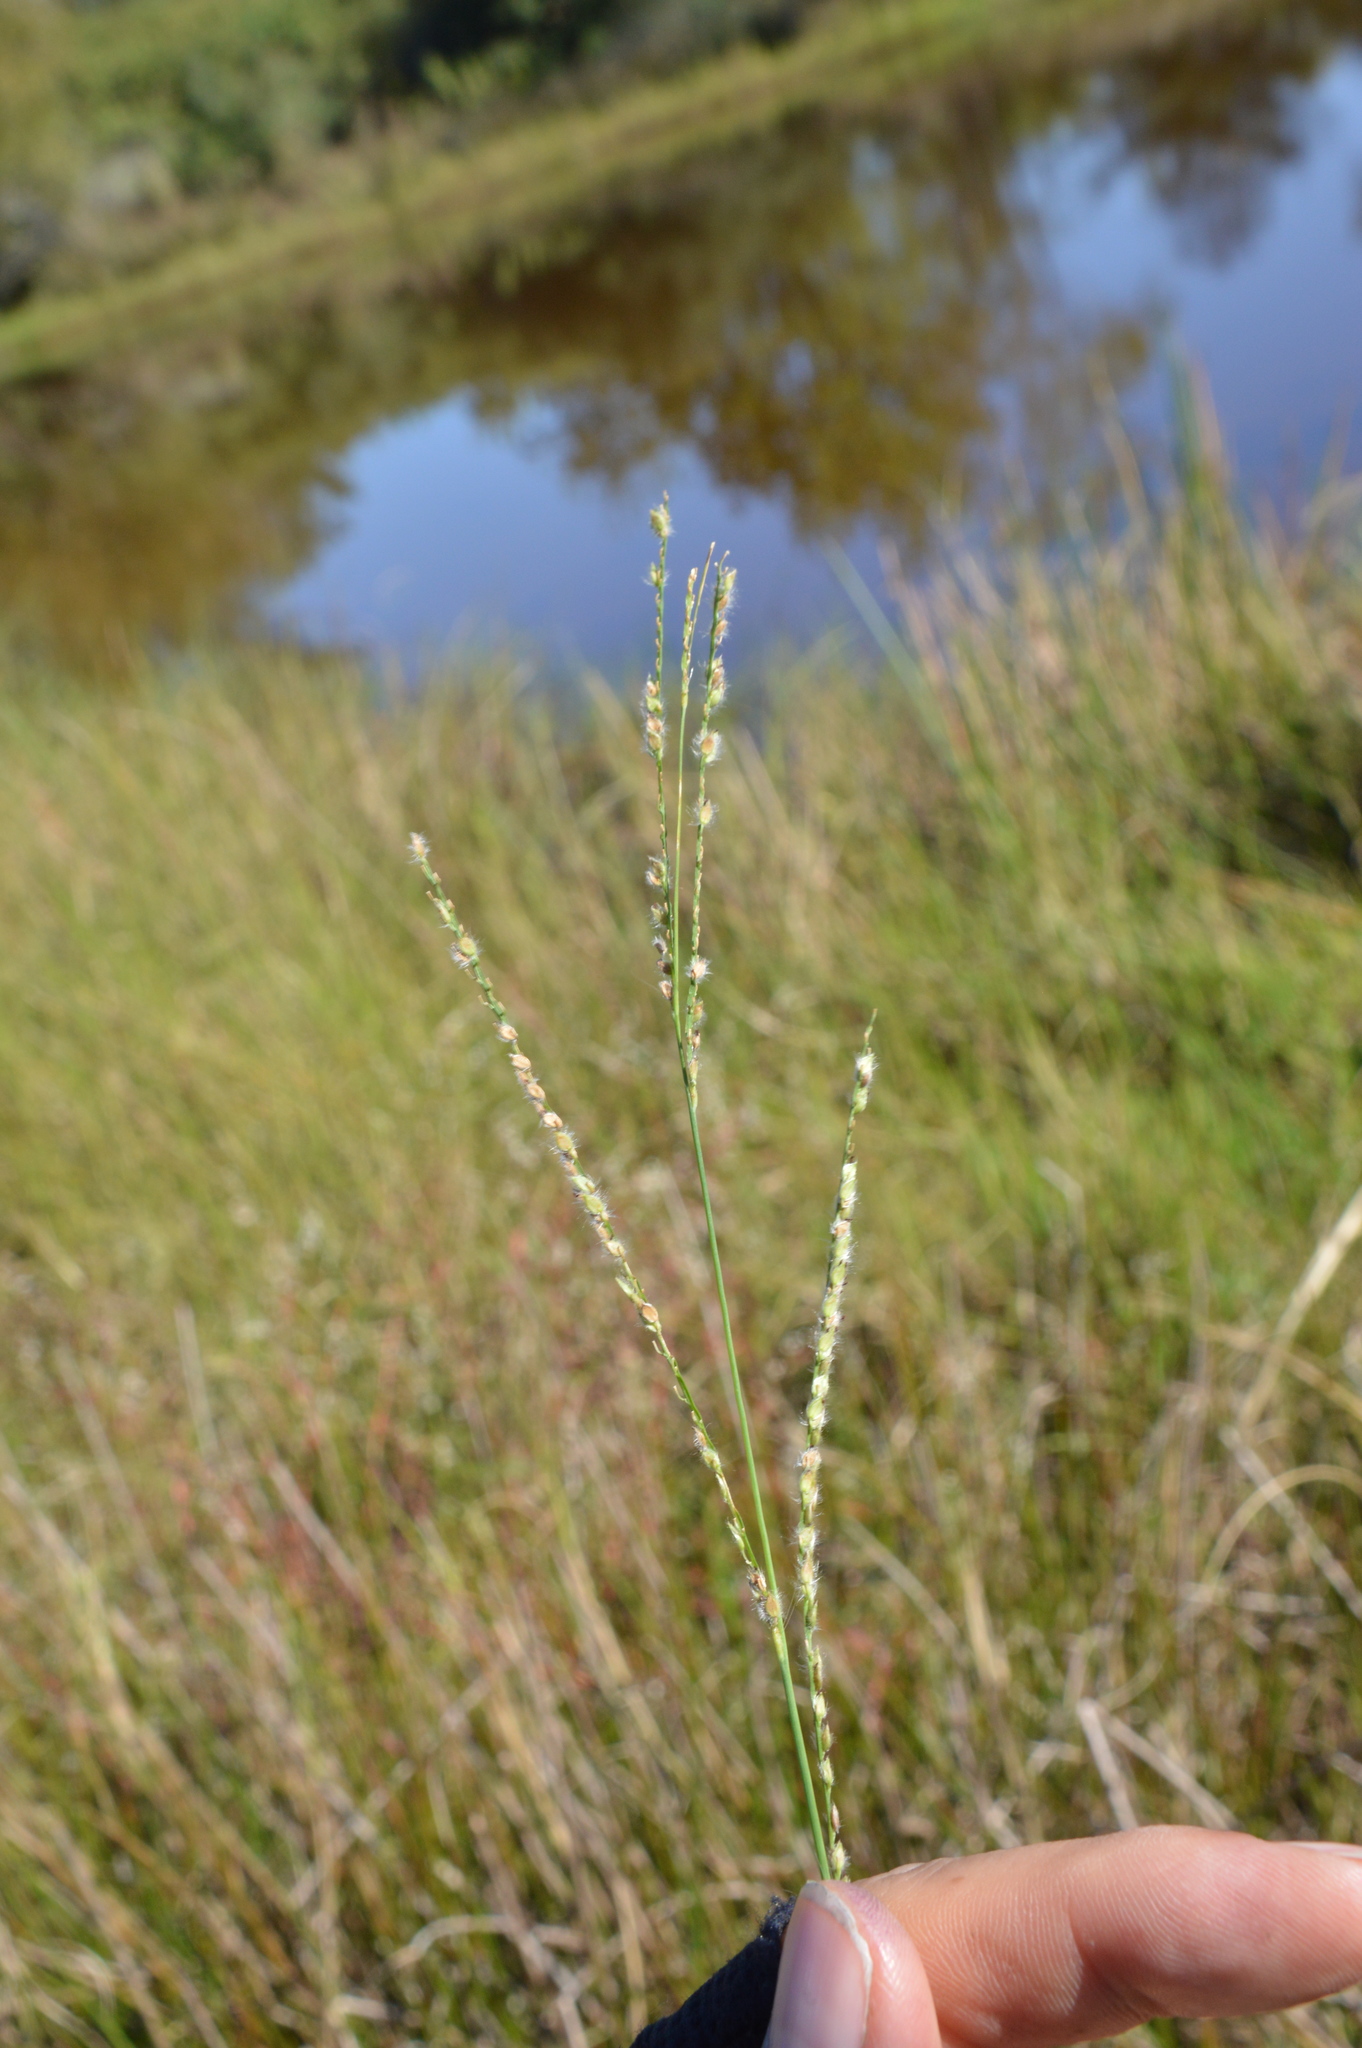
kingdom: Plantae
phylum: Tracheophyta
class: Liliopsida
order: Poales
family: Poaceae
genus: Paspalum
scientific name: Paspalum urvillei
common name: Vasey's grass
